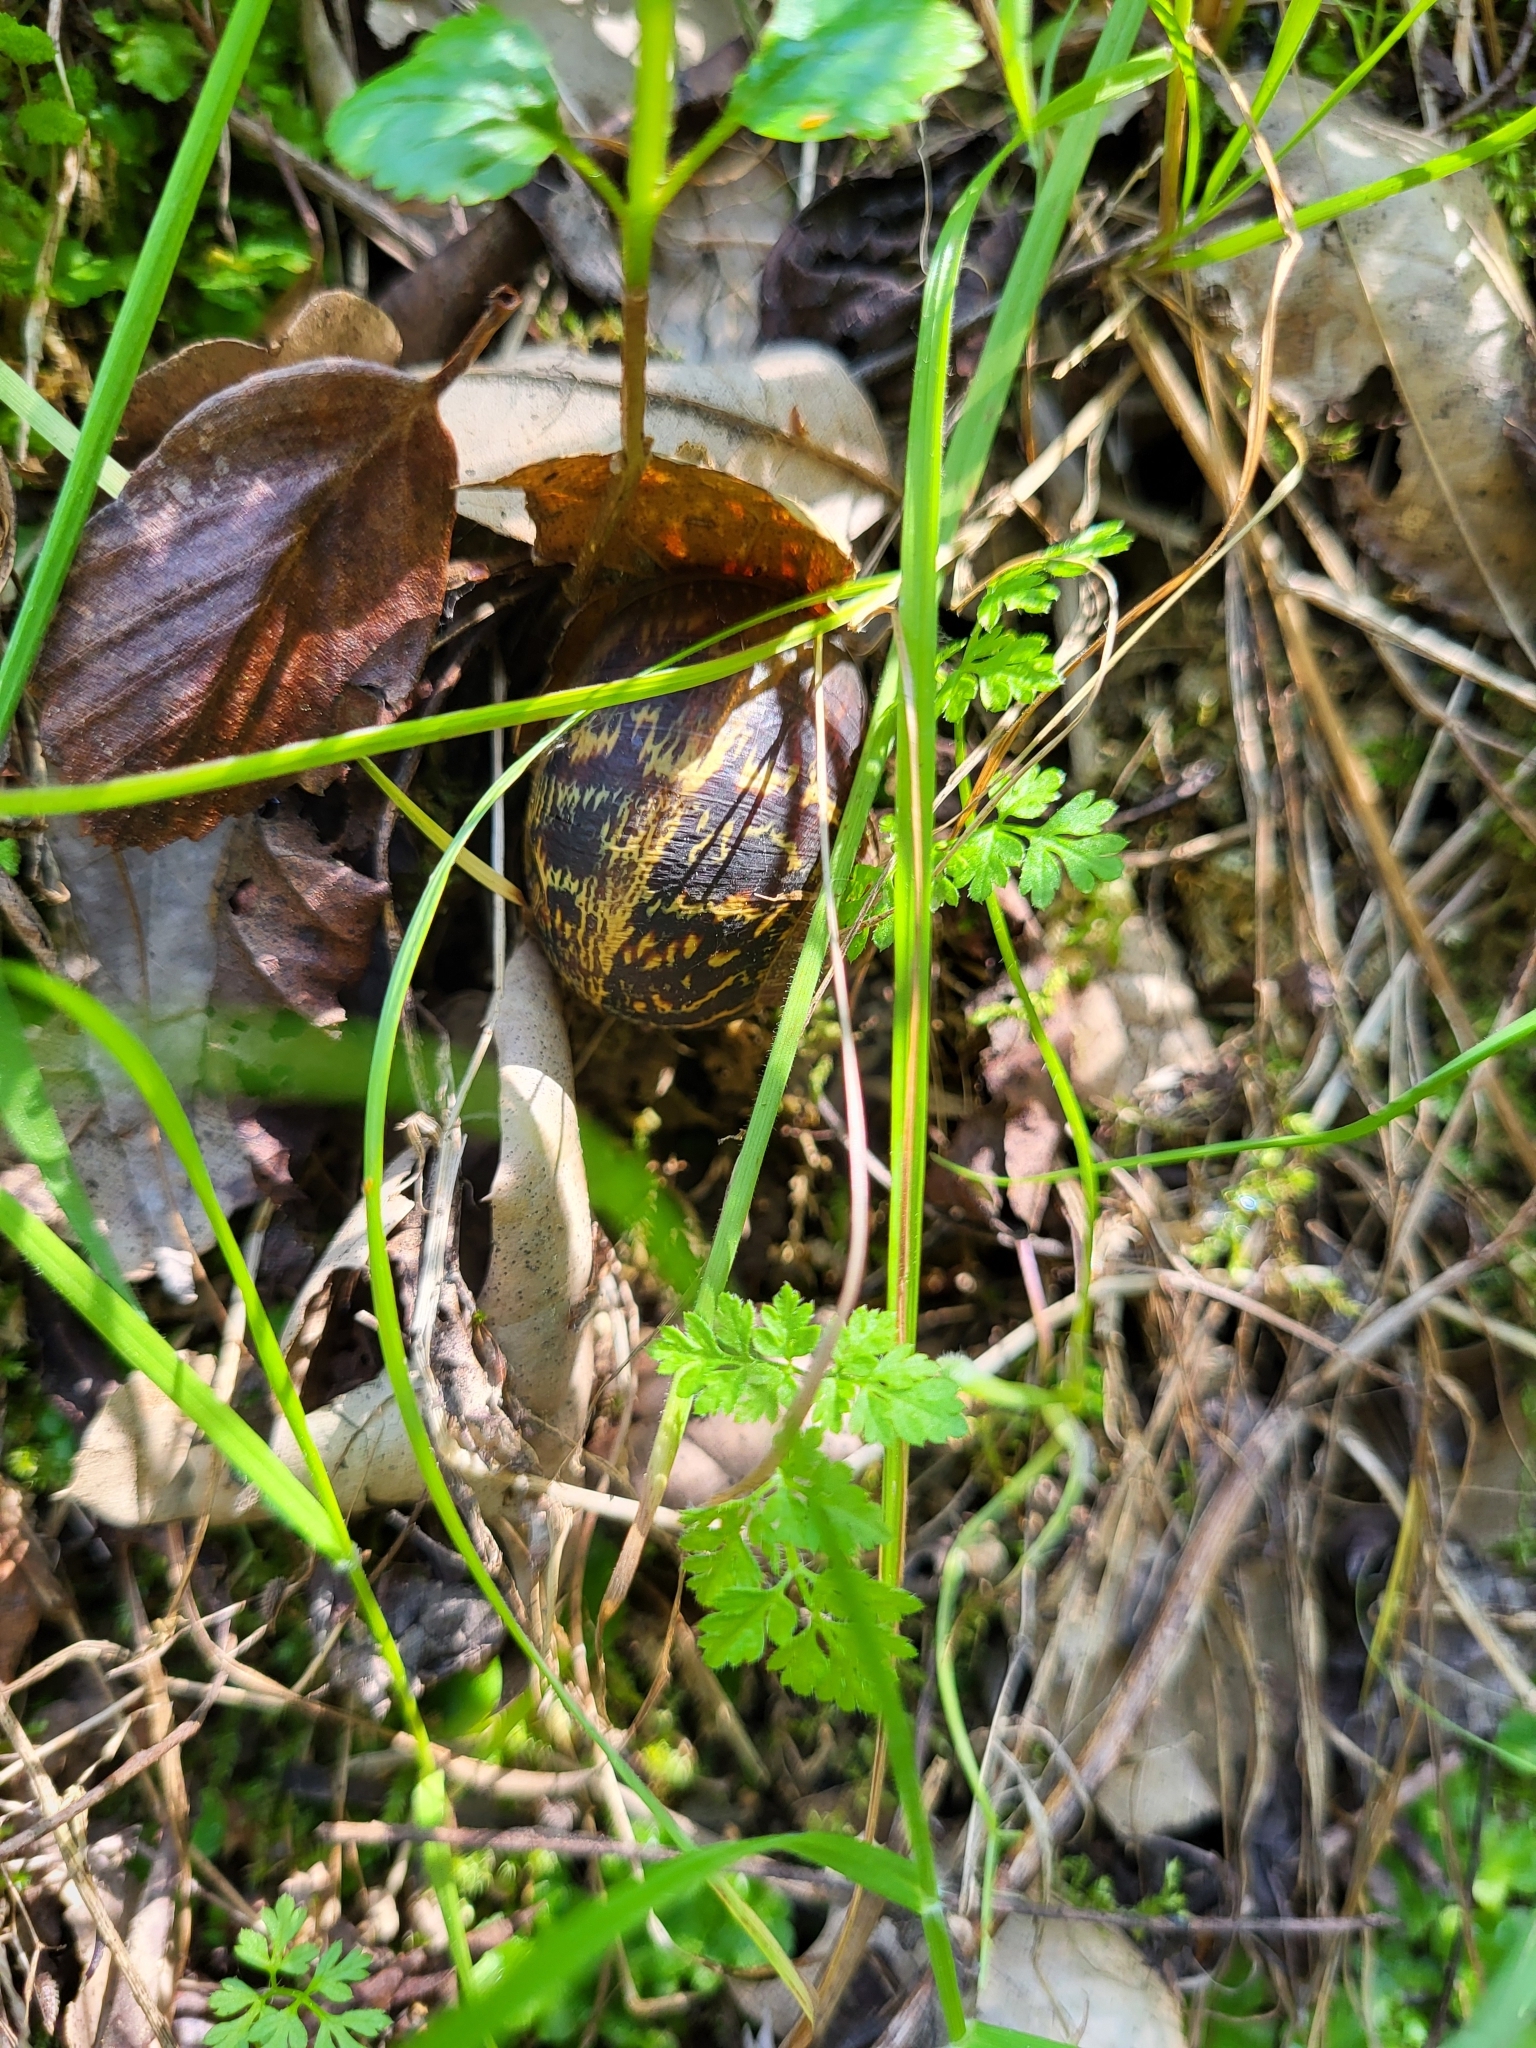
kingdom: Animalia
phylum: Mollusca
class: Gastropoda
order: Stylommatophora
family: Helicidae
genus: Cornu
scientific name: Cornu aspersum
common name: Brown garden snail
